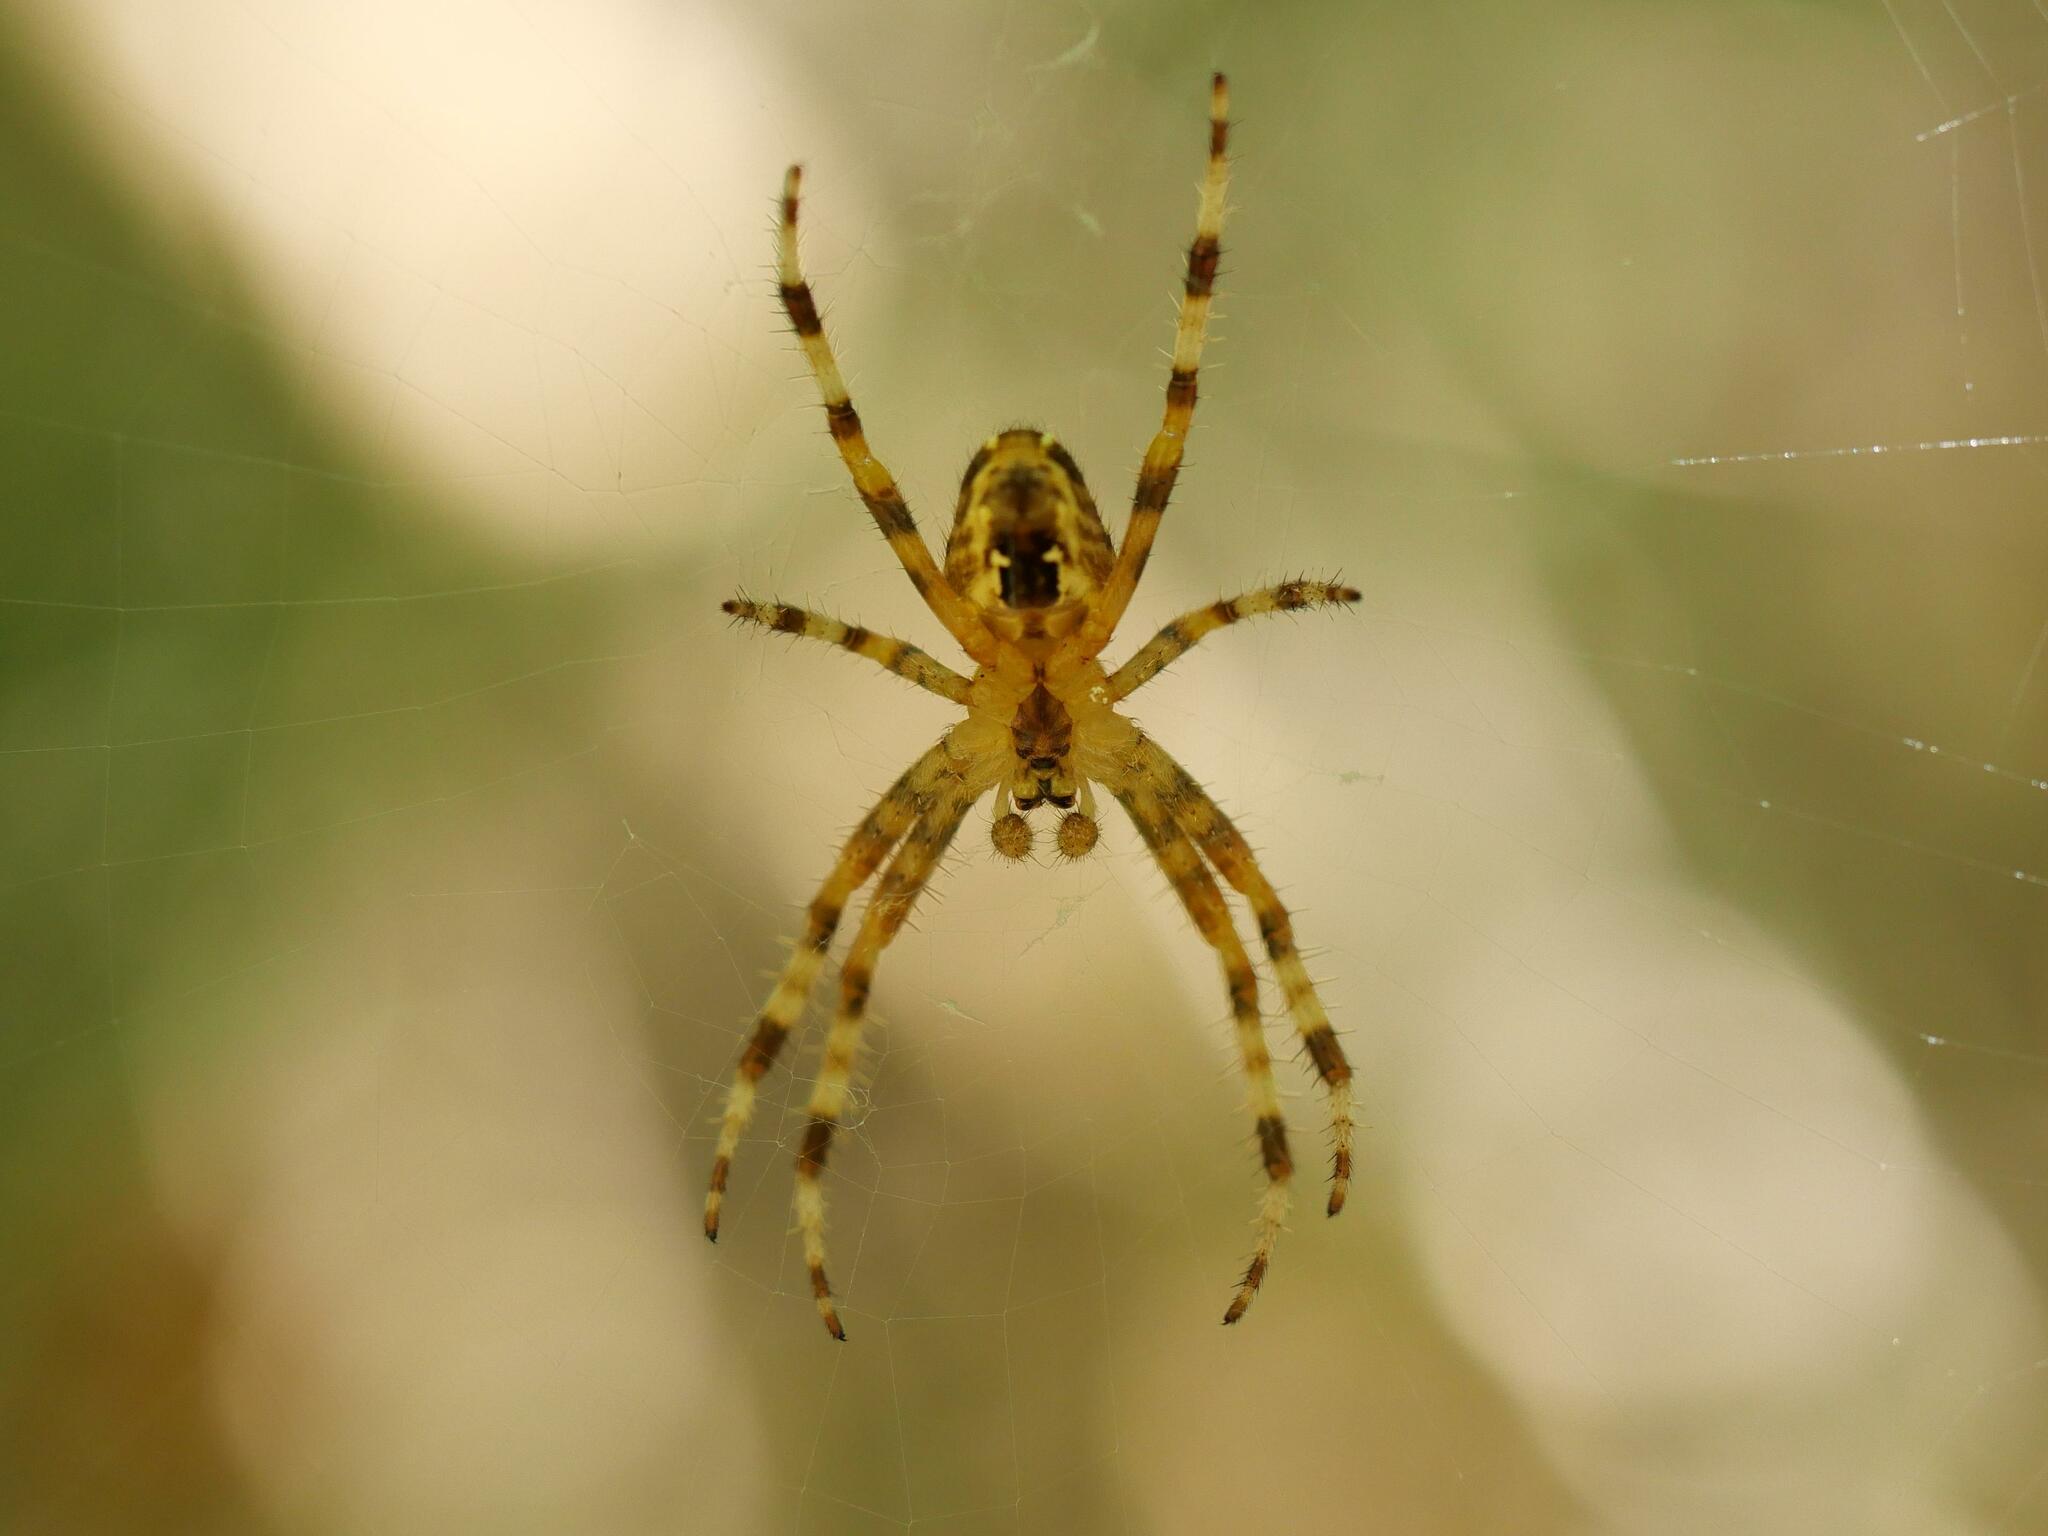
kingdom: Animalia
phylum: Arthropoda
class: Arachnida
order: Araneae
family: Araneidae
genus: Araneus
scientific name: Araneus diadematus
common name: Cross orbweaver
